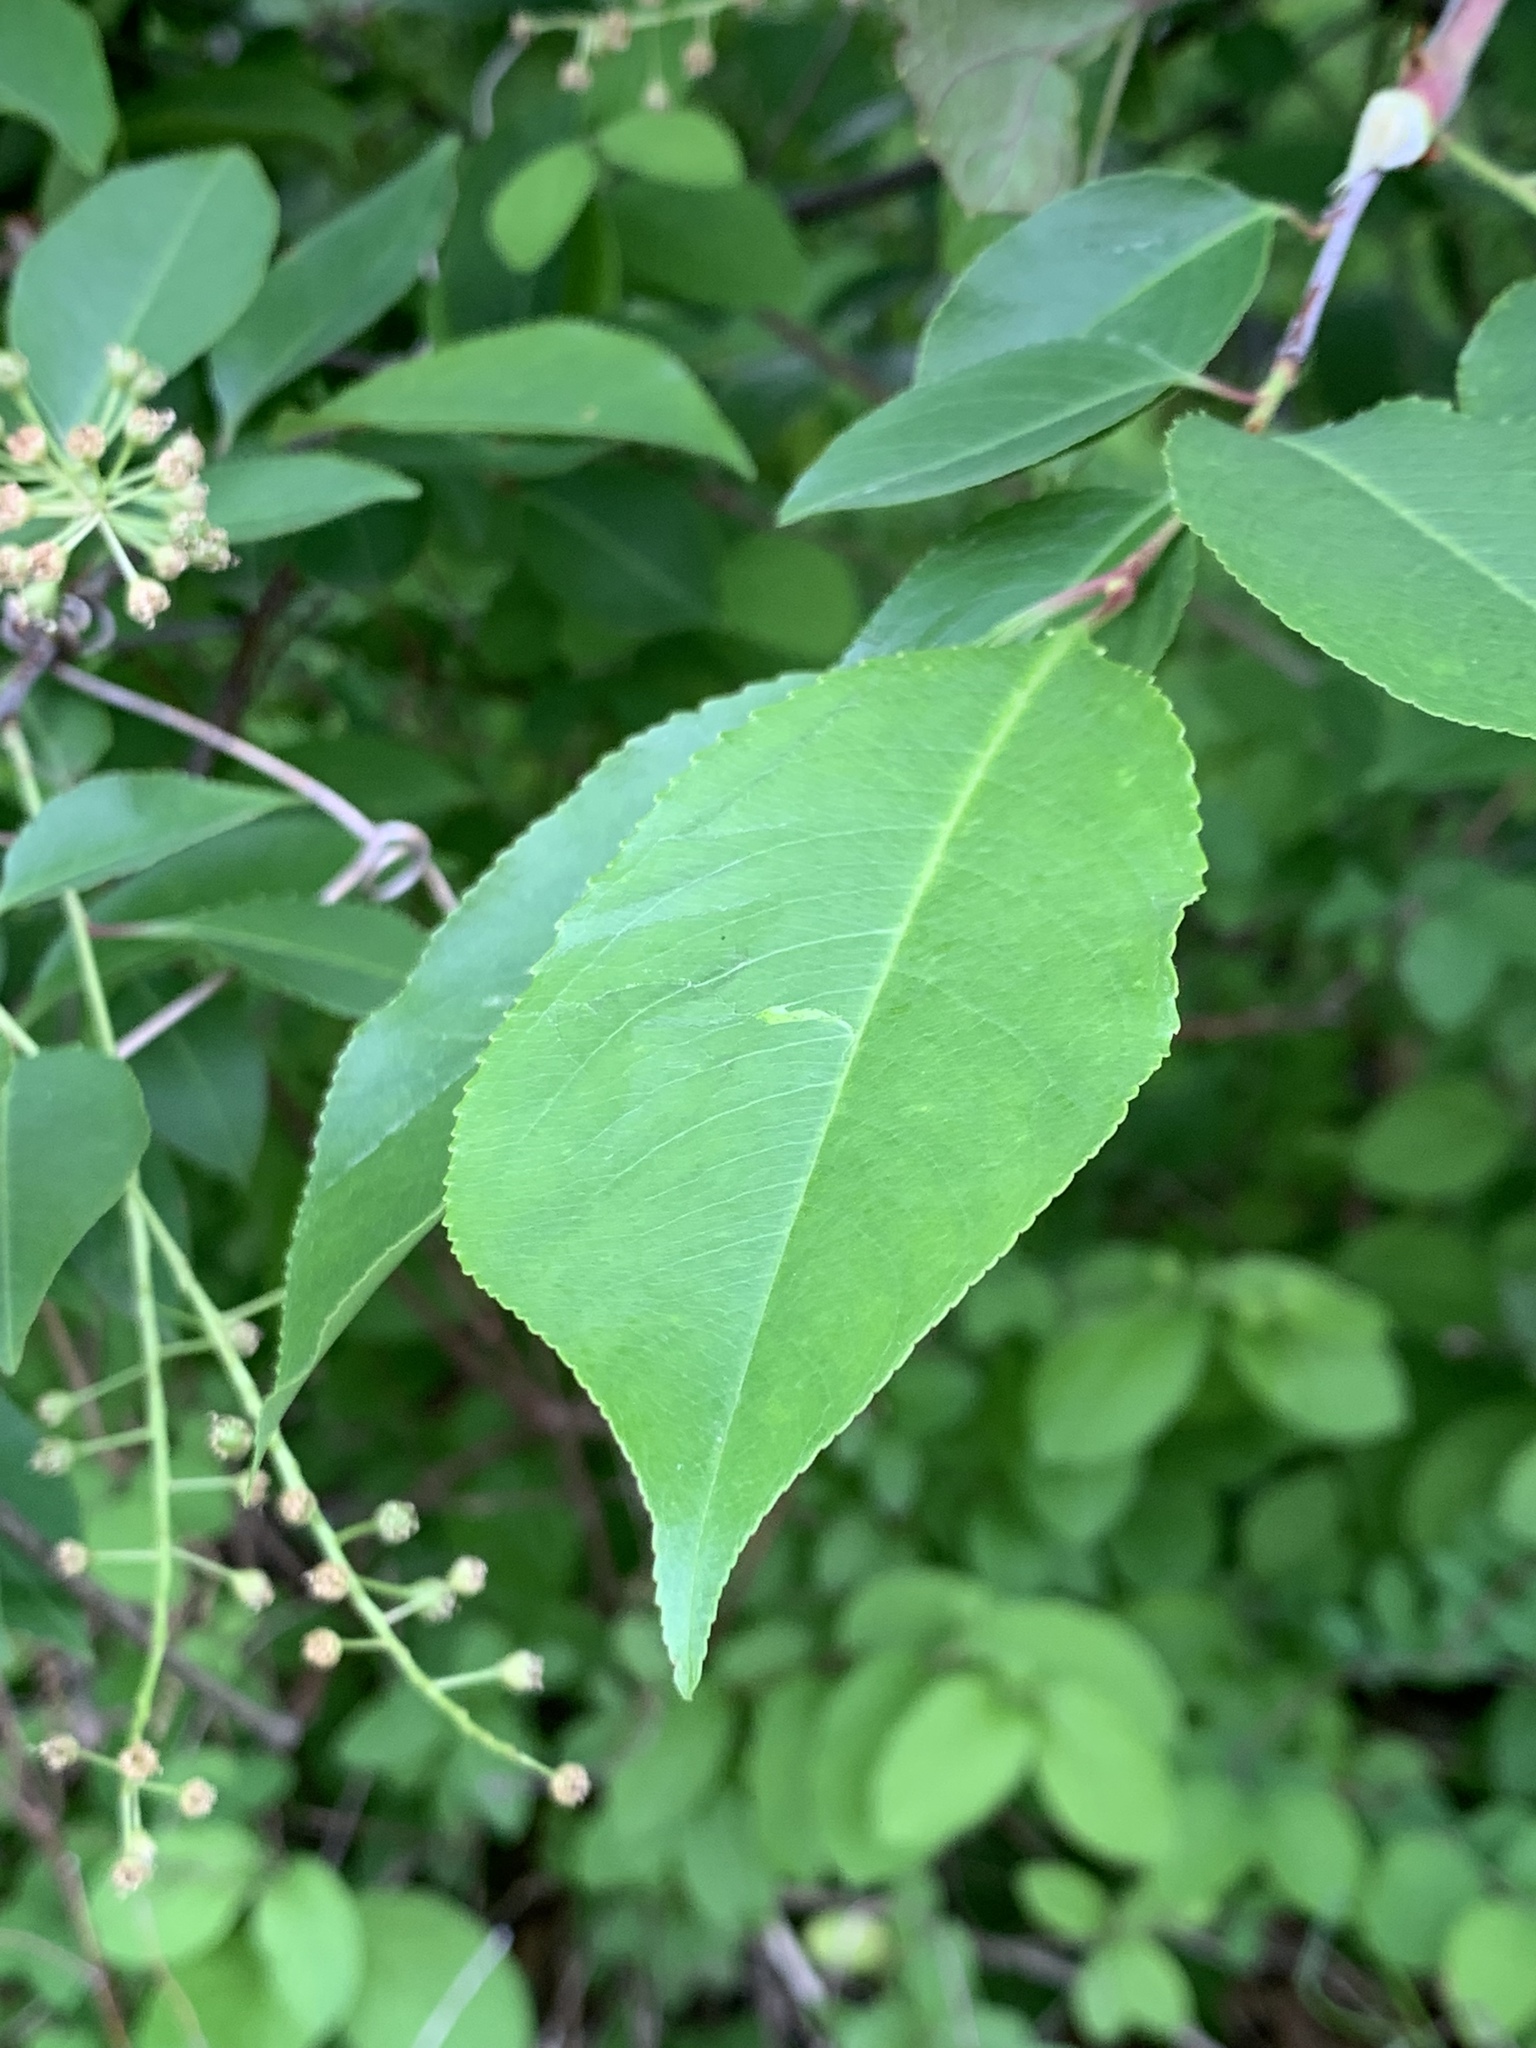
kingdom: Plantae
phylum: Tracheophyta
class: Magnoliopsida
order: Rosales
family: Rosaceae
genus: Prunus
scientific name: Prunus serotina
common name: Black cherry
